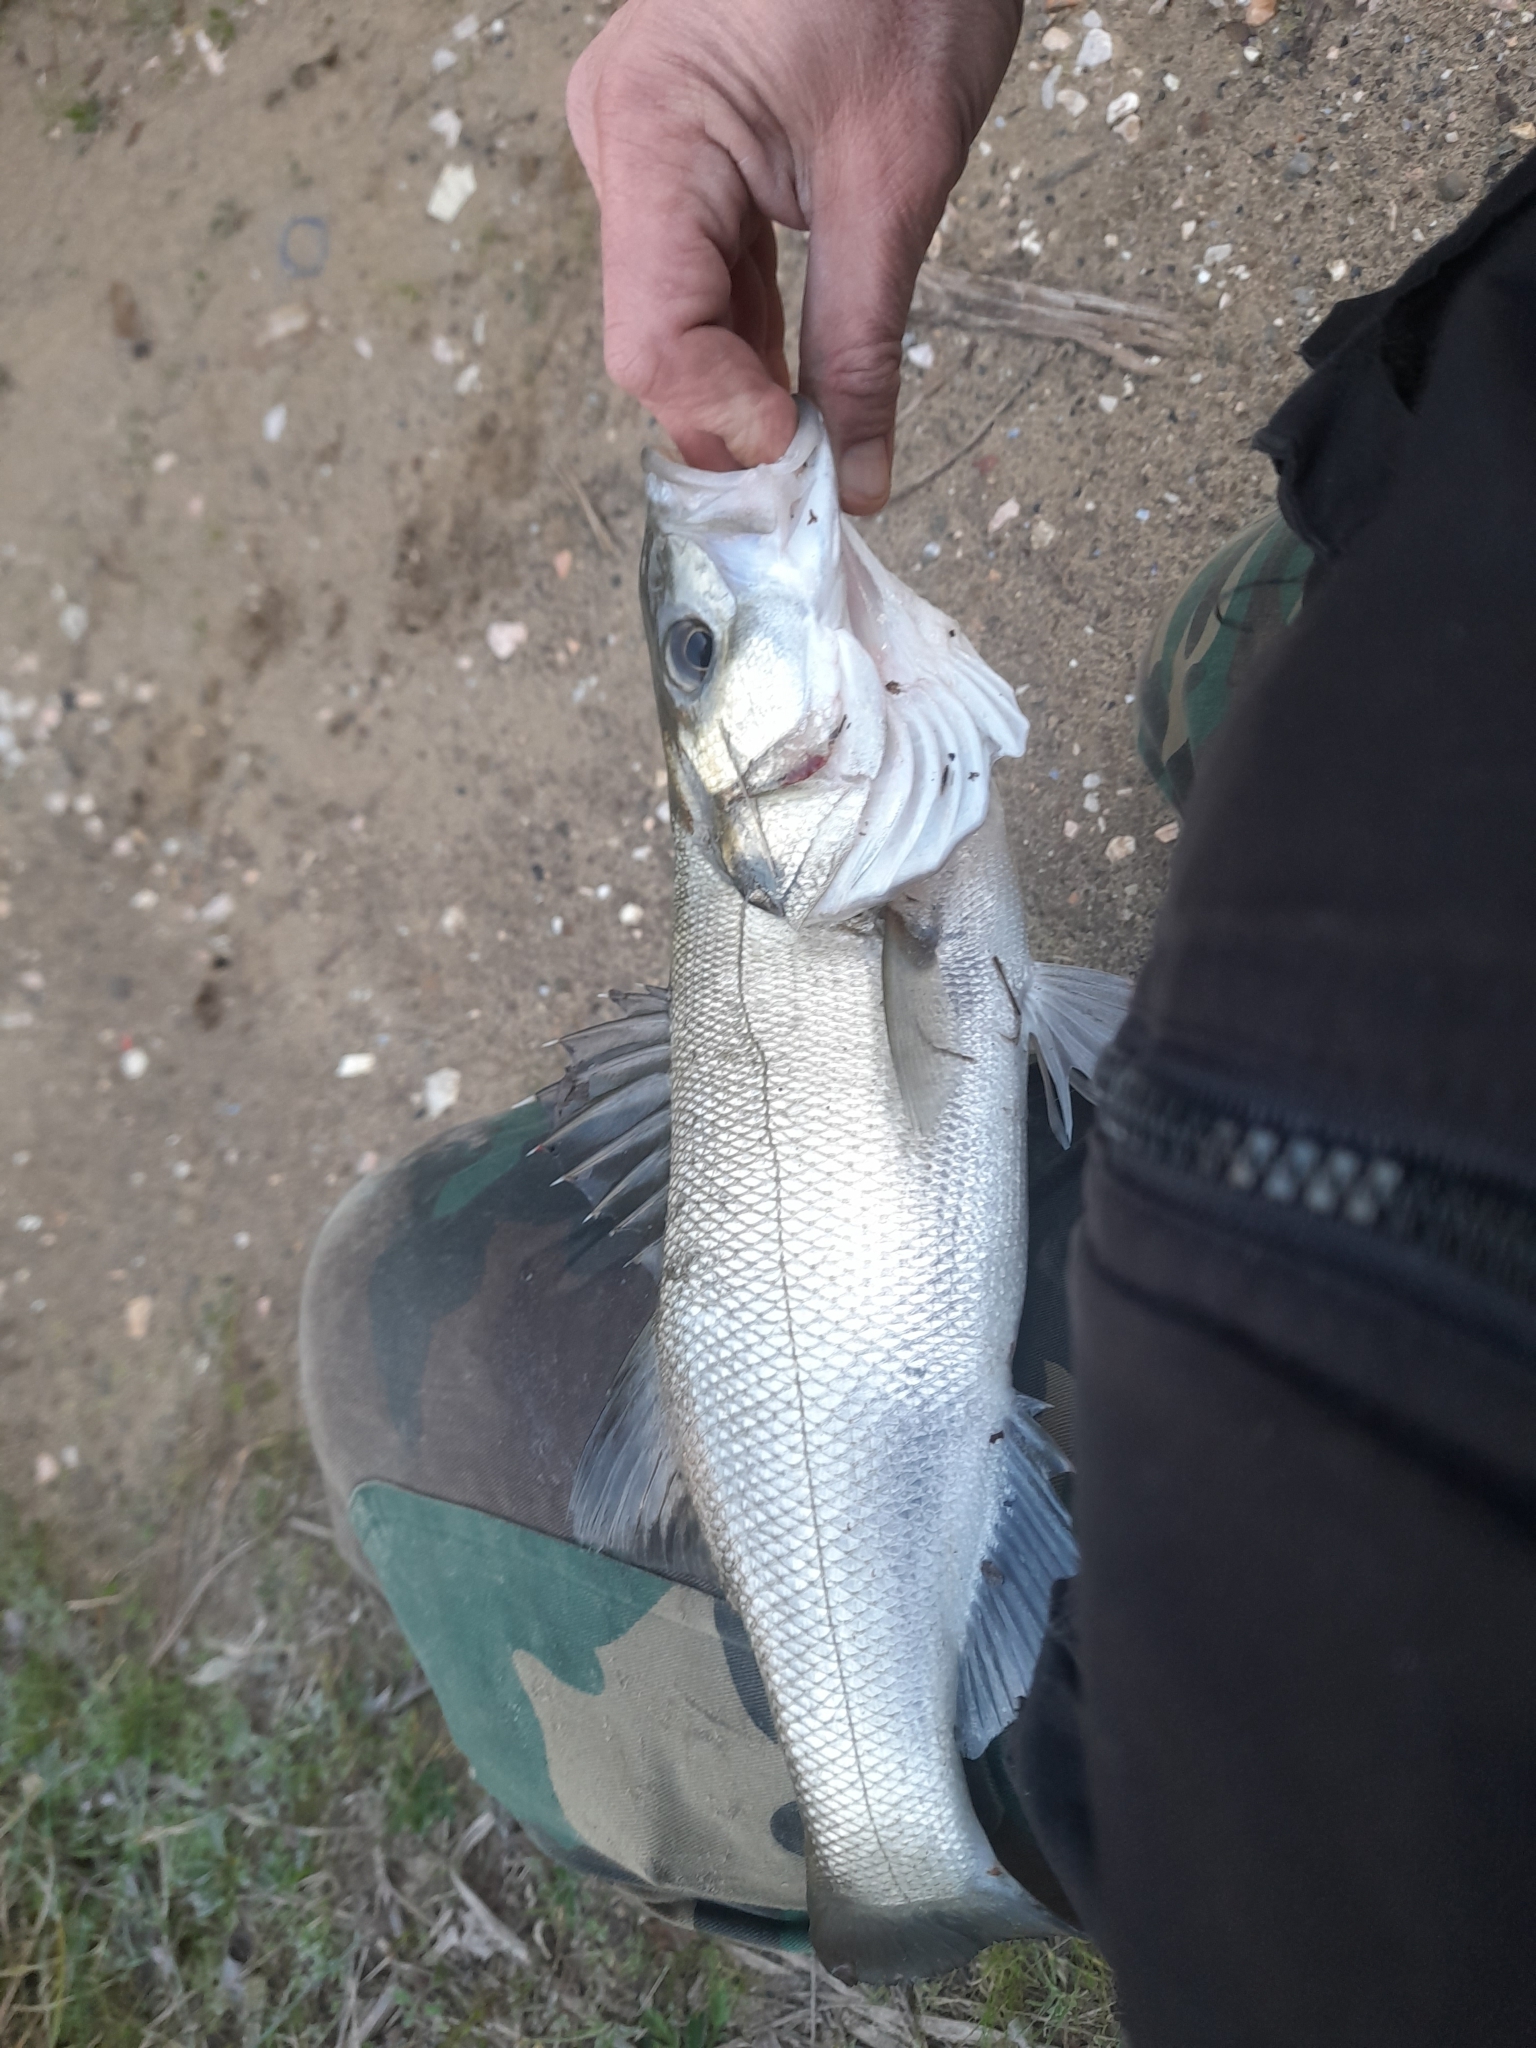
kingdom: Animalia
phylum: Chordata
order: Perciformes
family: Moronidae
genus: Dicentrarchus
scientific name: Dicentrarchus labrax
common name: European seabass
